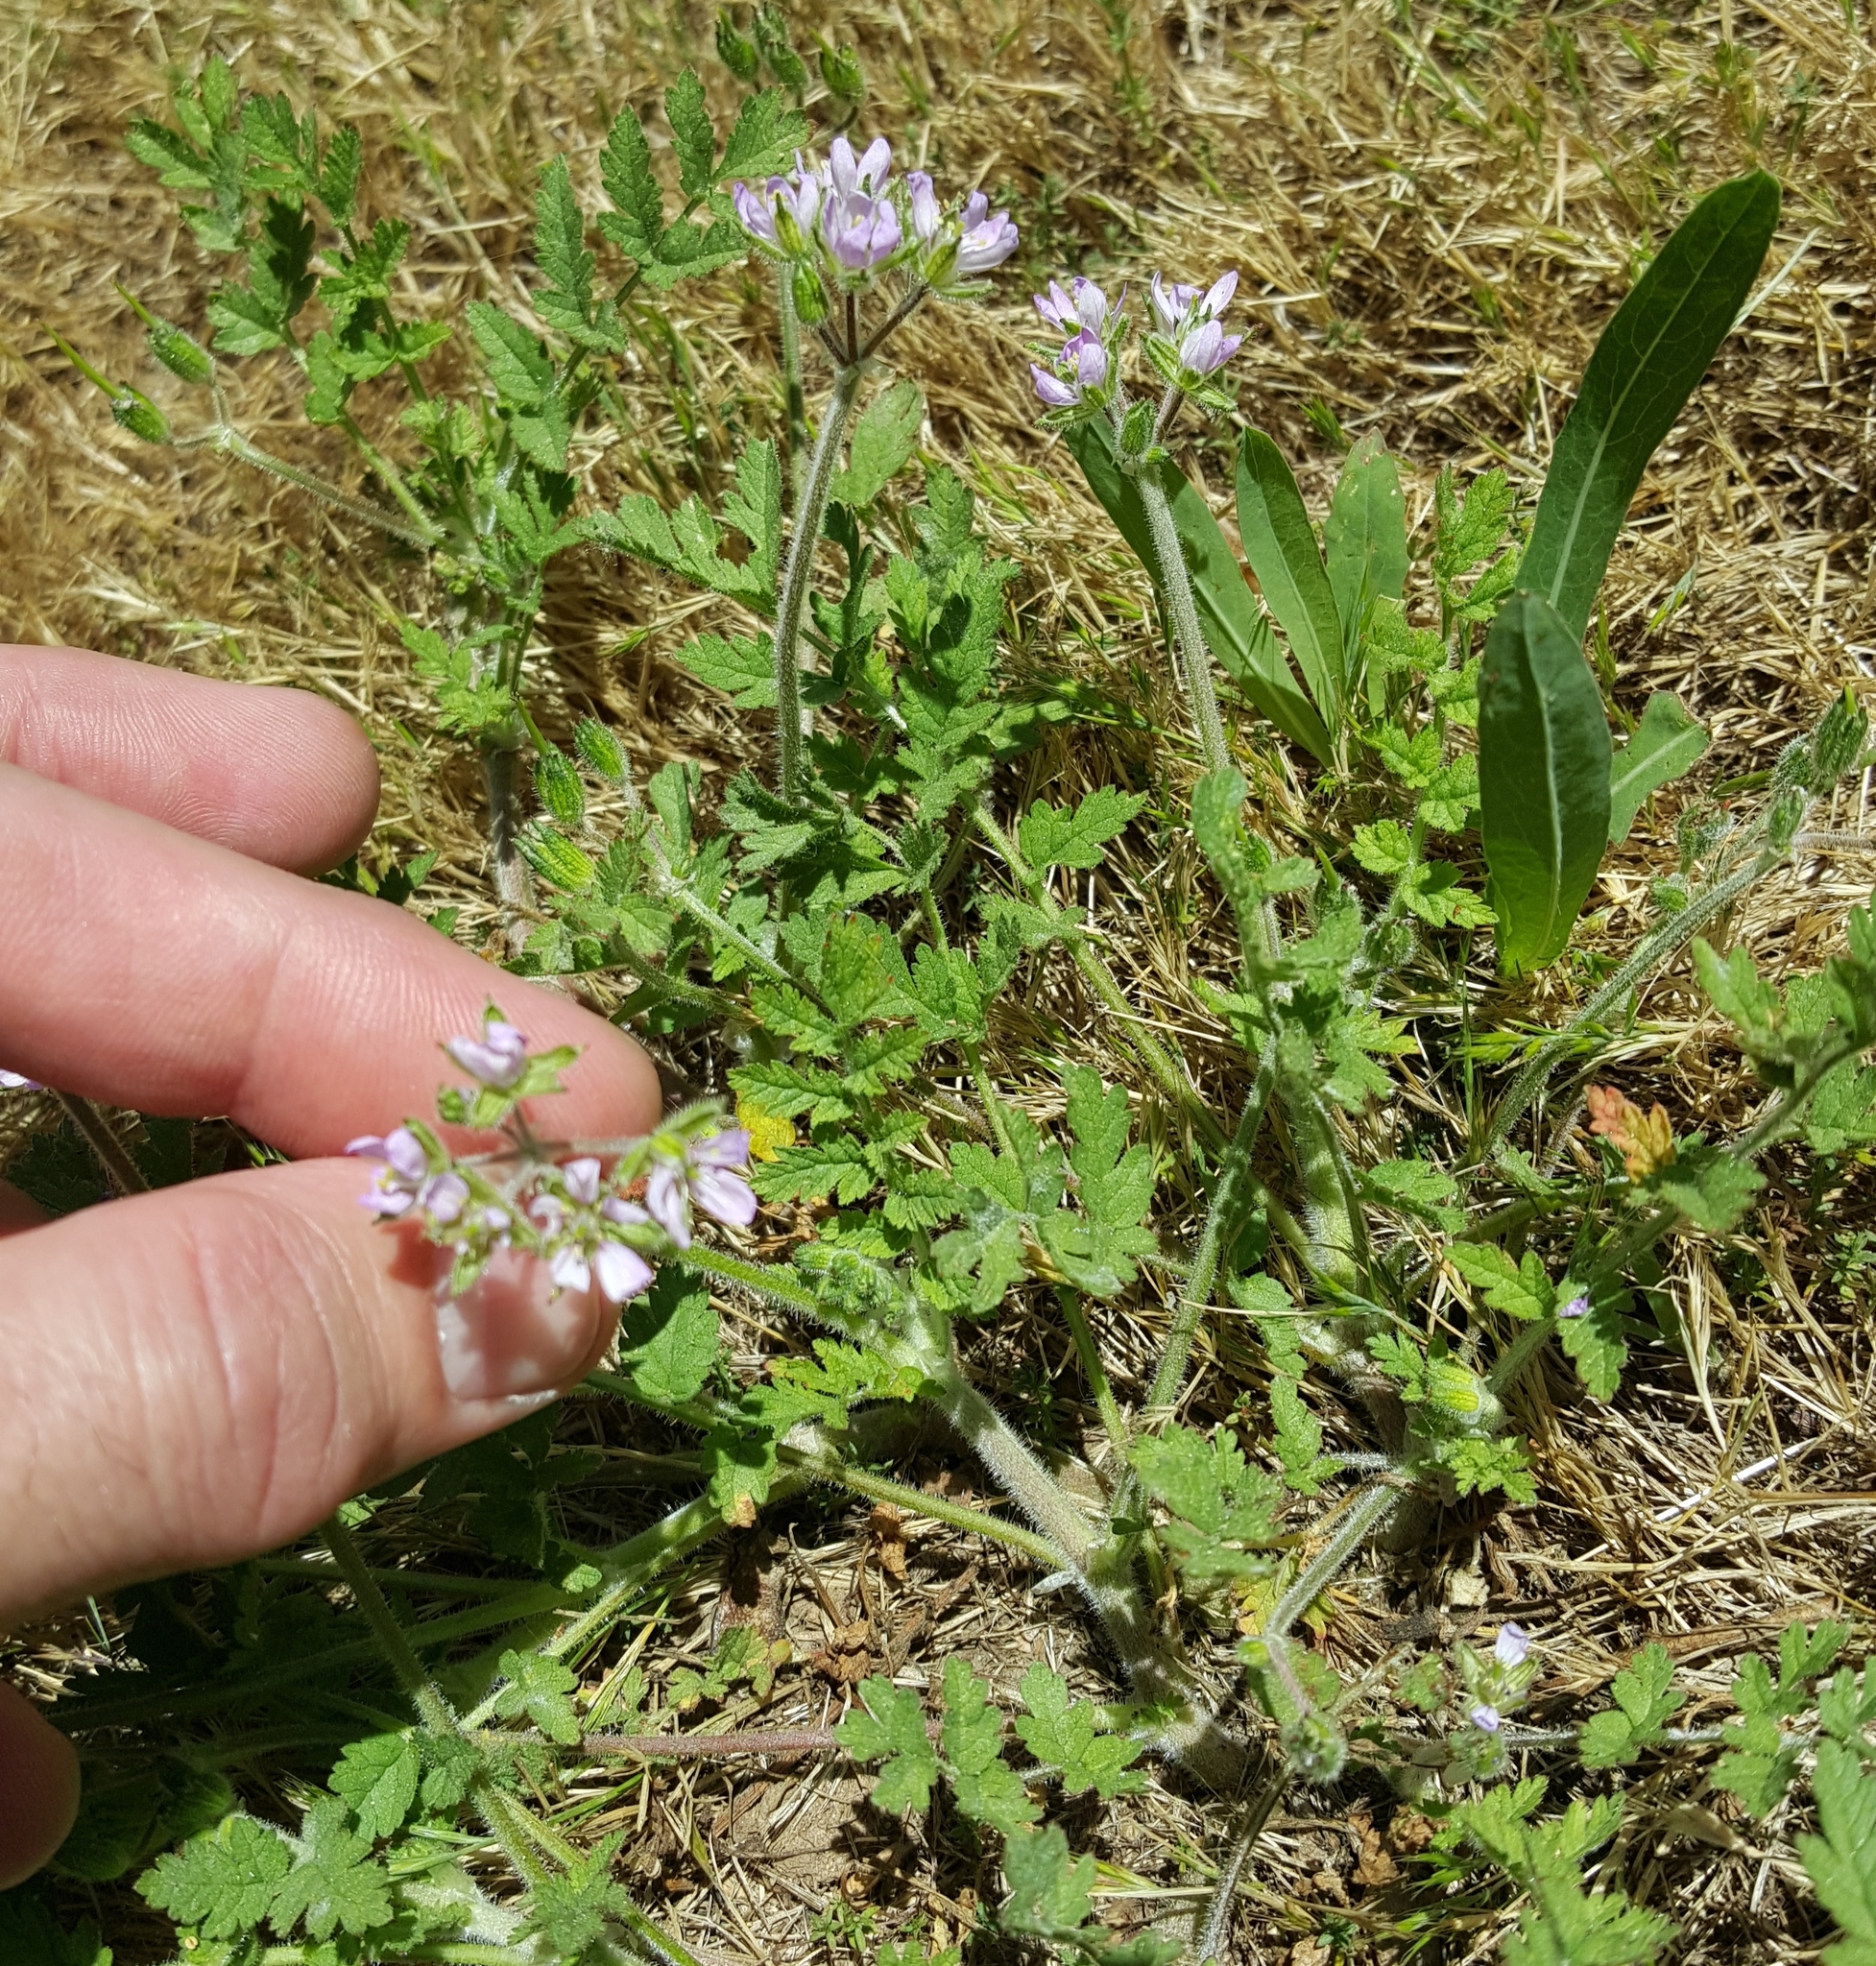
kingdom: Plantae
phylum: Tracheophyta
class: Magnoliopsida
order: Geraniales
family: Geraniaceae
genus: Erodium
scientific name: Erodium moschatum
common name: Musk stork's-bill
